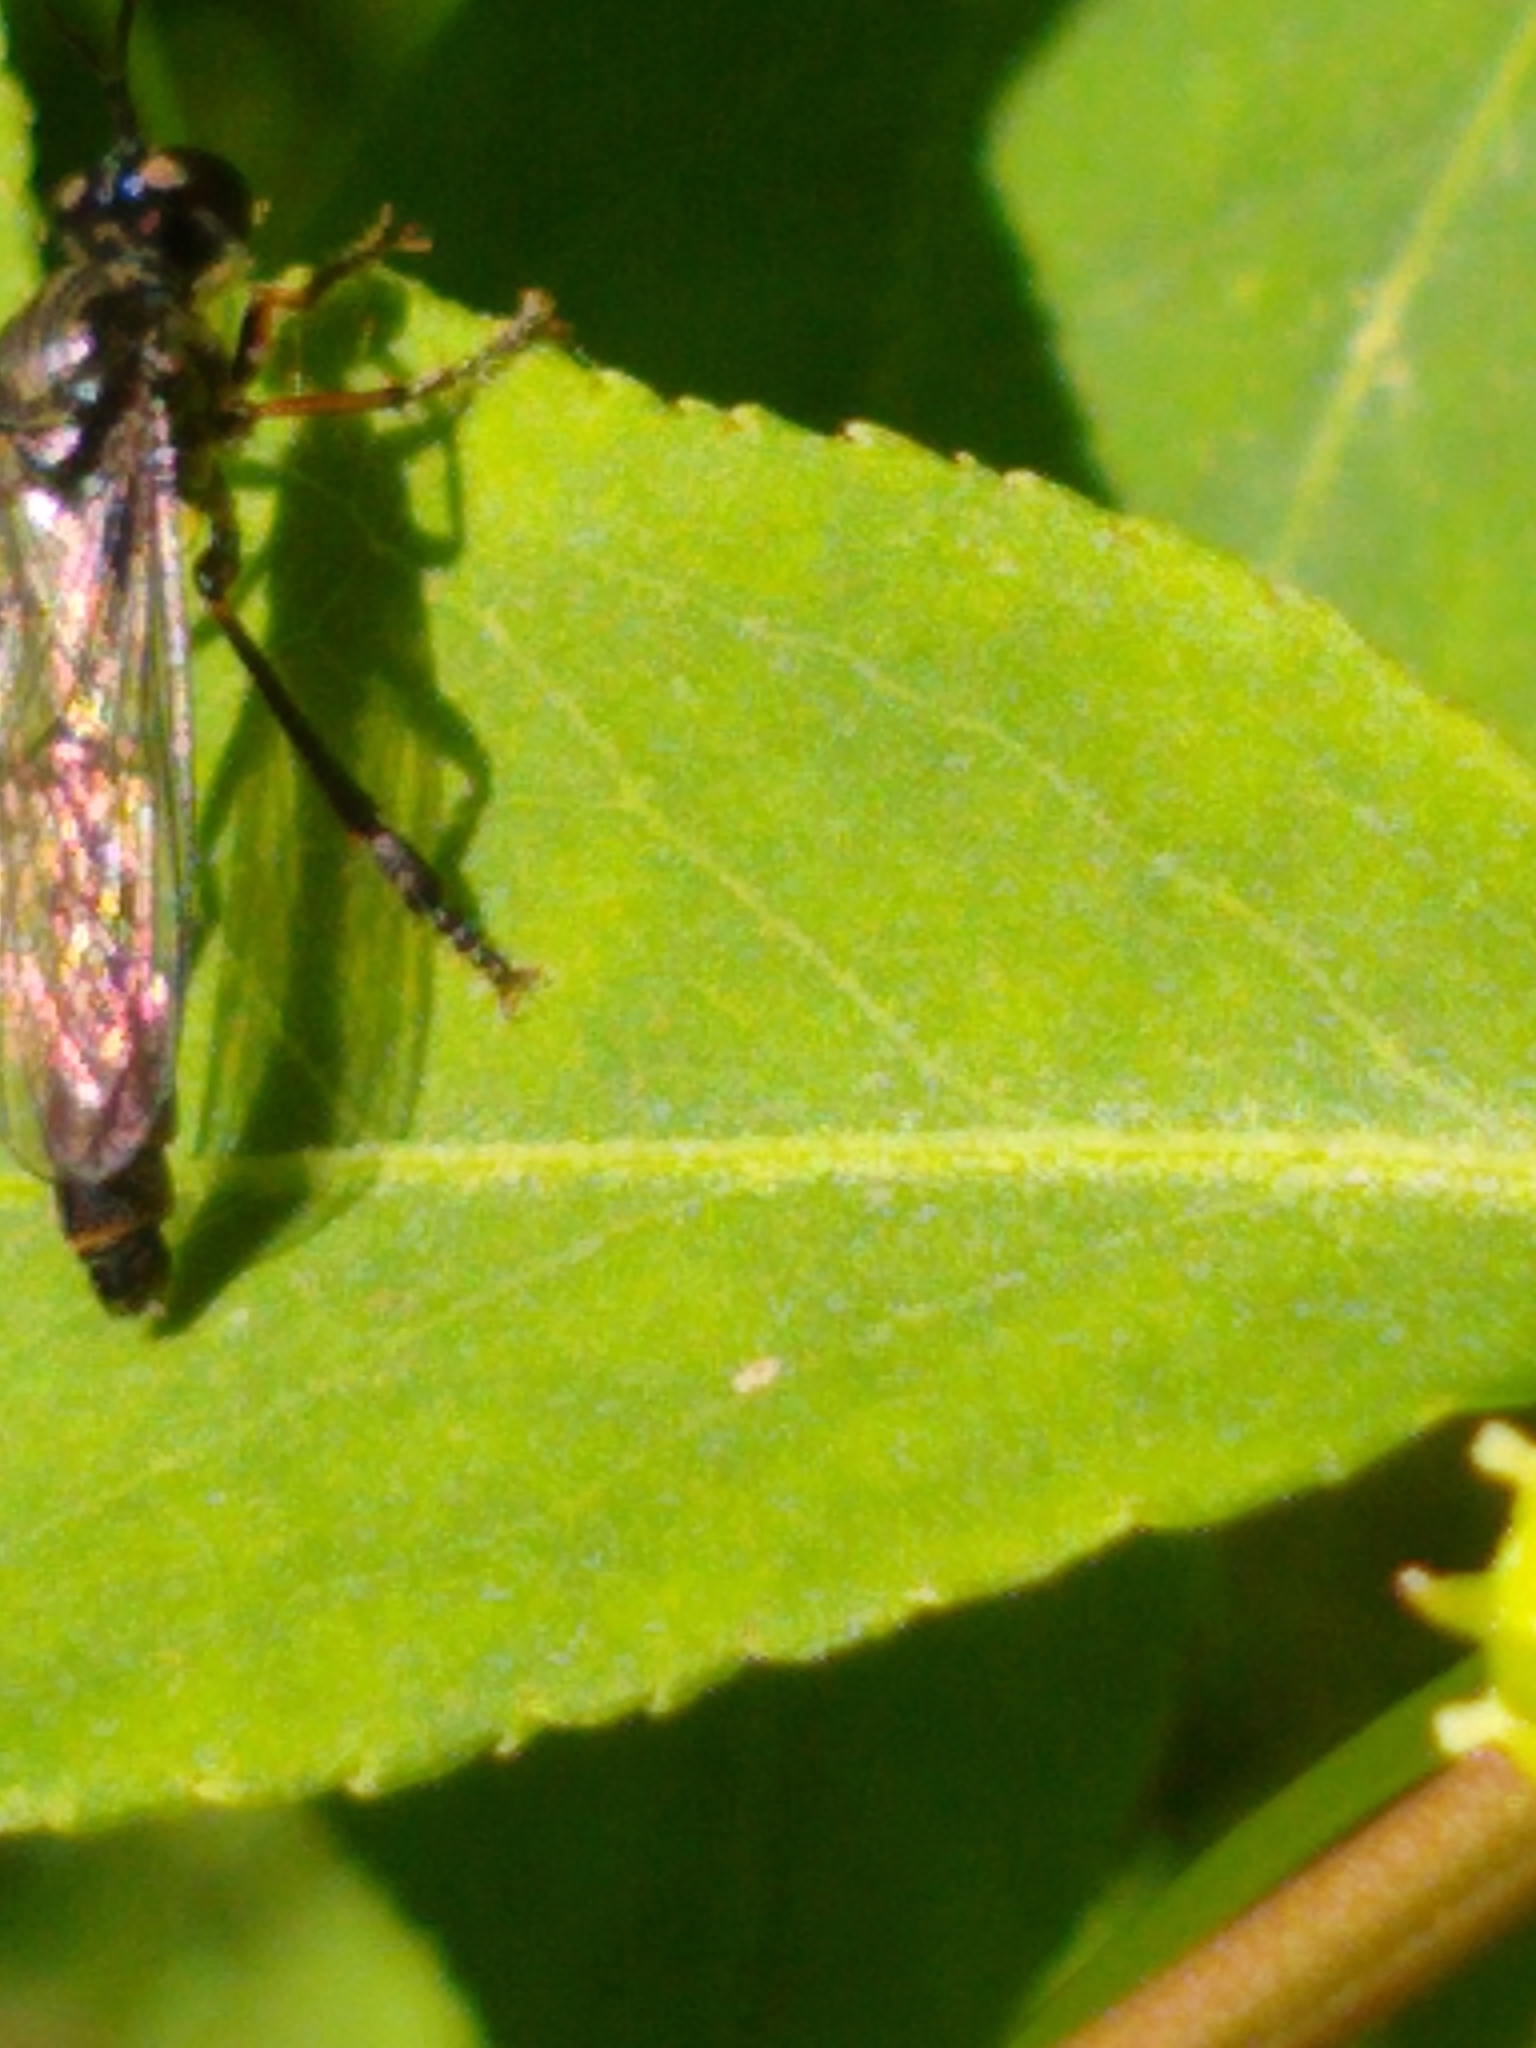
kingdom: Animalia
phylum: Arthropoda
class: Insecta
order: Diptera
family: Asilidae
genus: Dioctria
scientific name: Dioctria hyalipennis
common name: Stripe-legged robberfly
